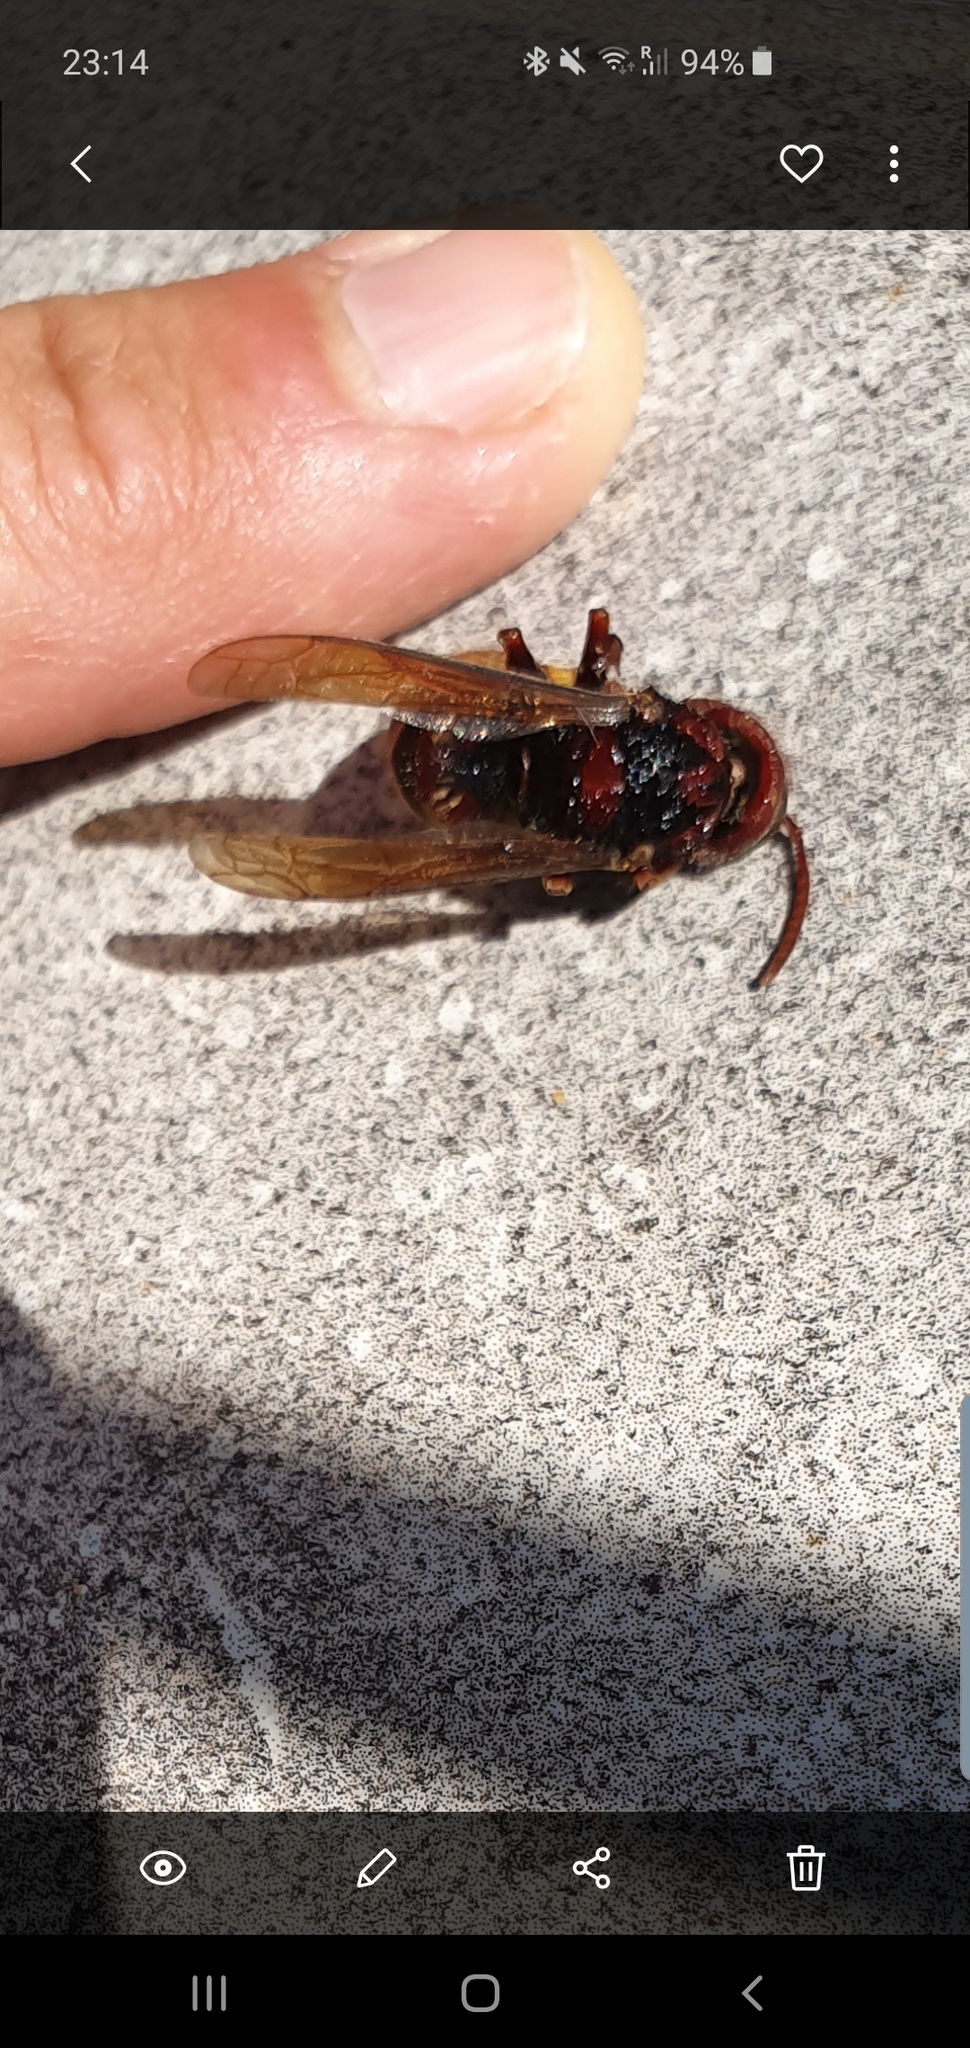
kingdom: Animalia
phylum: Arthropoda
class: Insecta
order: Hymenoptera
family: Vespidae
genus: Vespa
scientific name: Vespa crabro
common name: Hornet
